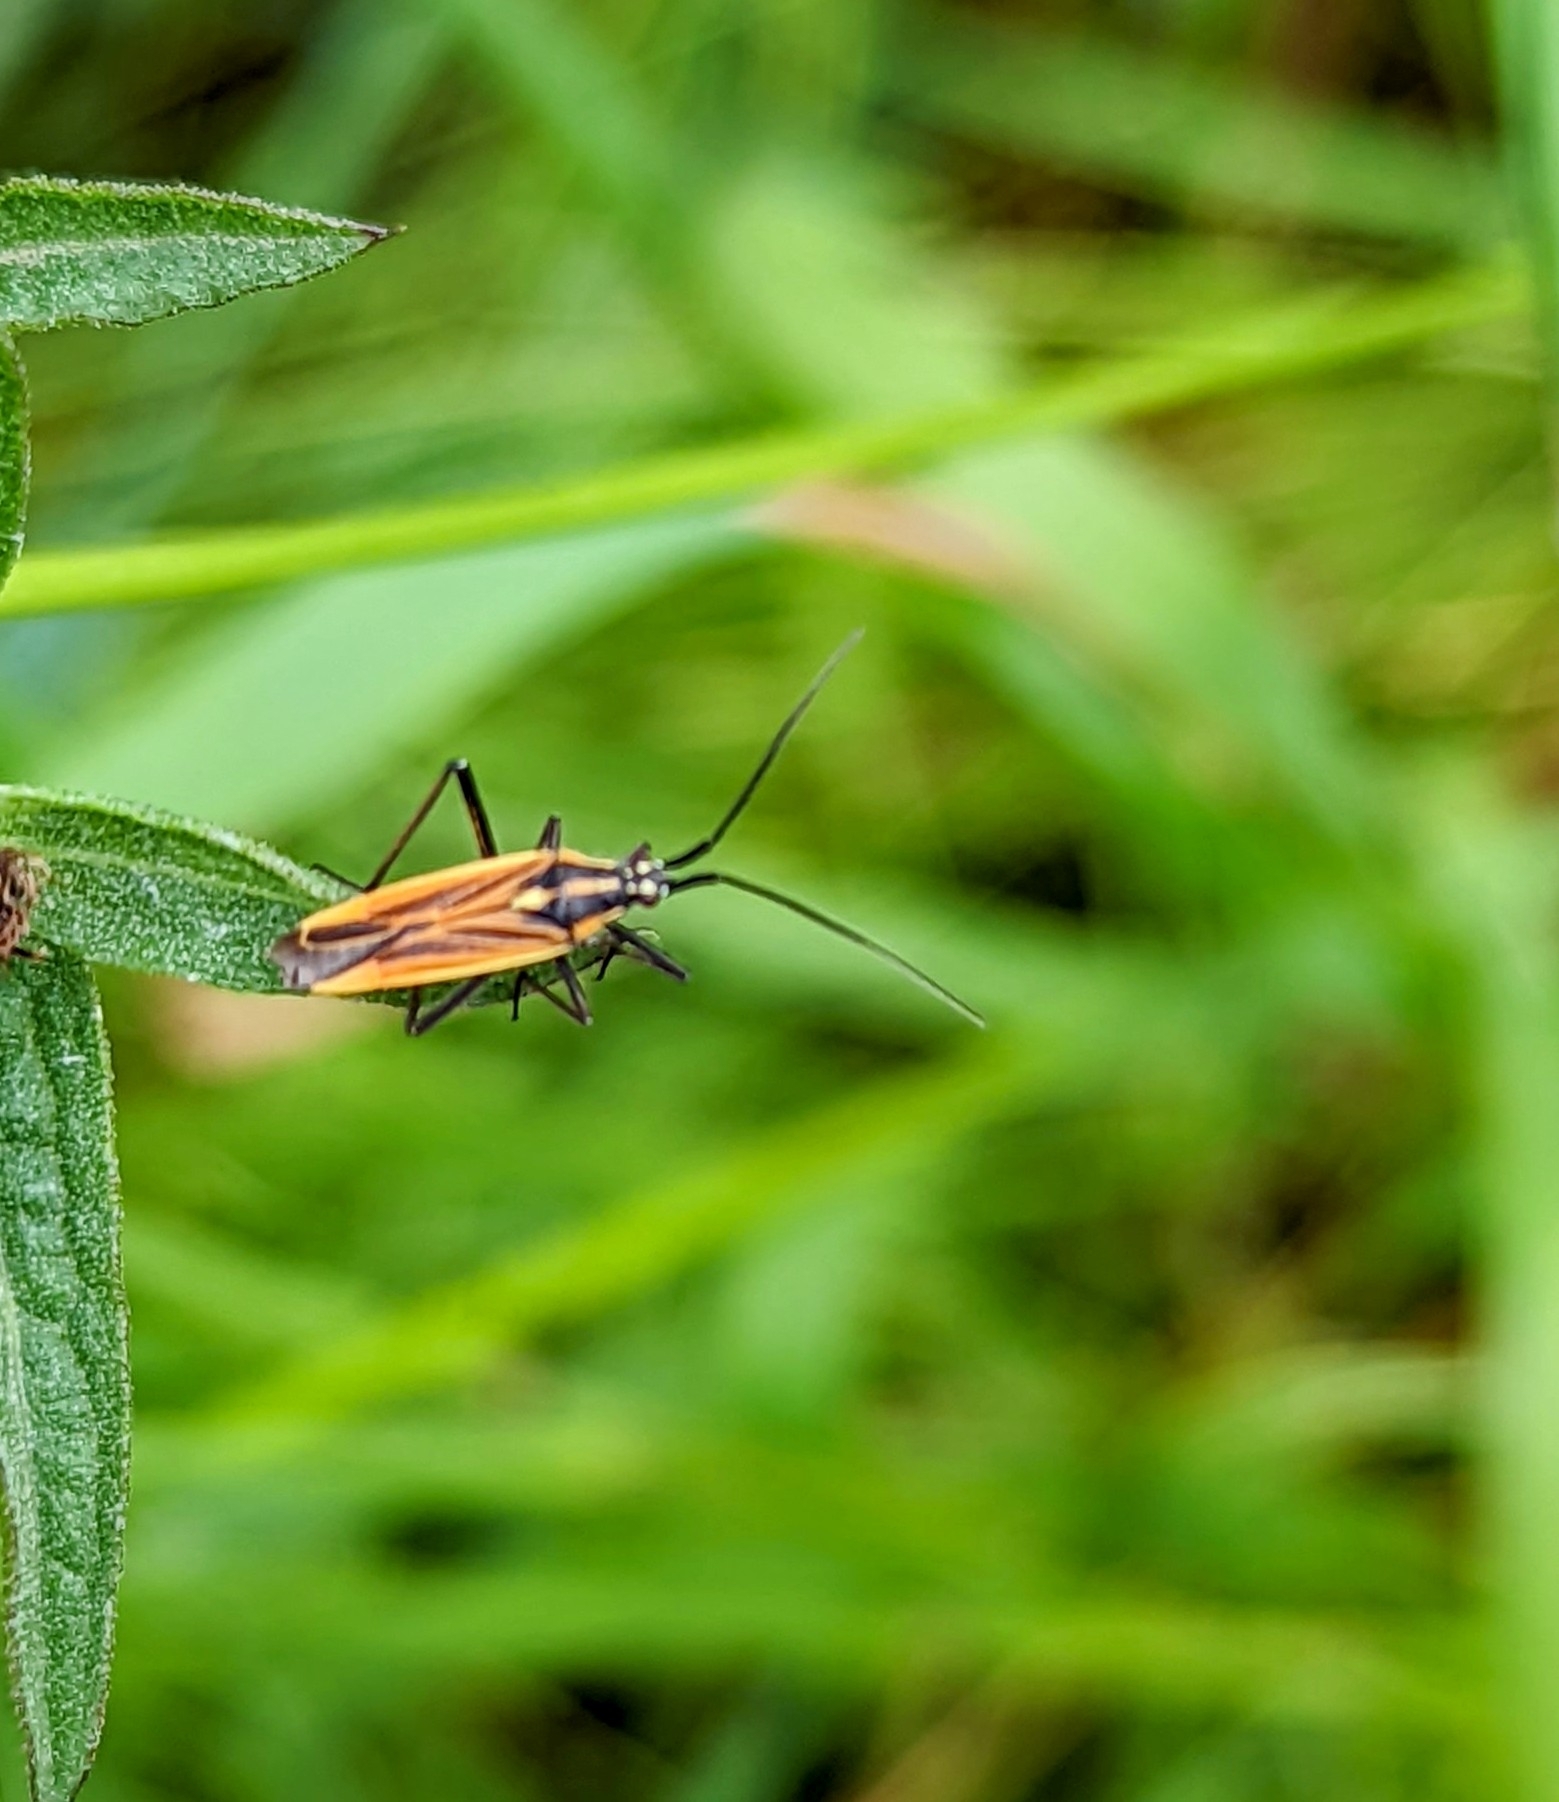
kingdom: Animalia
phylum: Arthropoda
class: Insecta
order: Hemiptera
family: Miridae
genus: Leptopterna
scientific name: Leptopterna dolabrata
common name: Meadow plant bug
